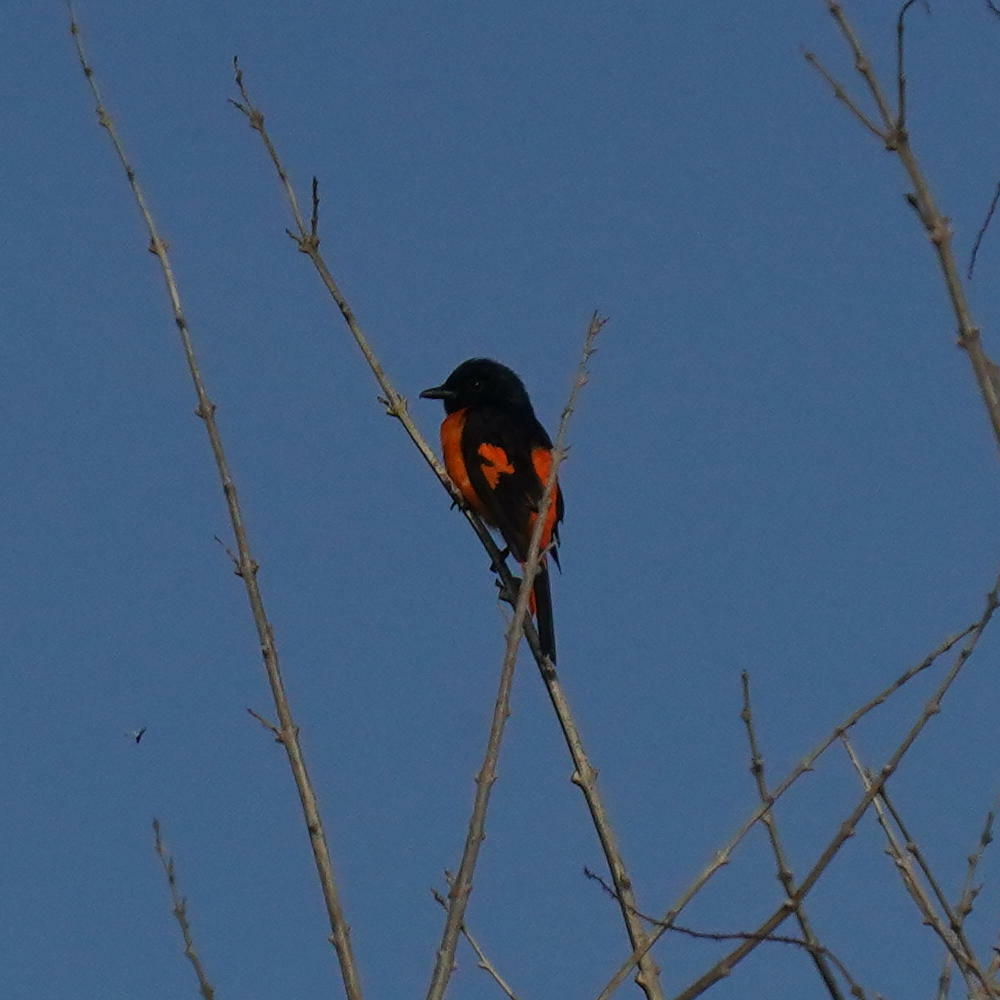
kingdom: Animalia
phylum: Chordata
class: Aves
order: Passeriformes
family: Campephagidae
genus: Pericrocotus
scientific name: Pericrocotus flammeus
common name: Orange minivet
